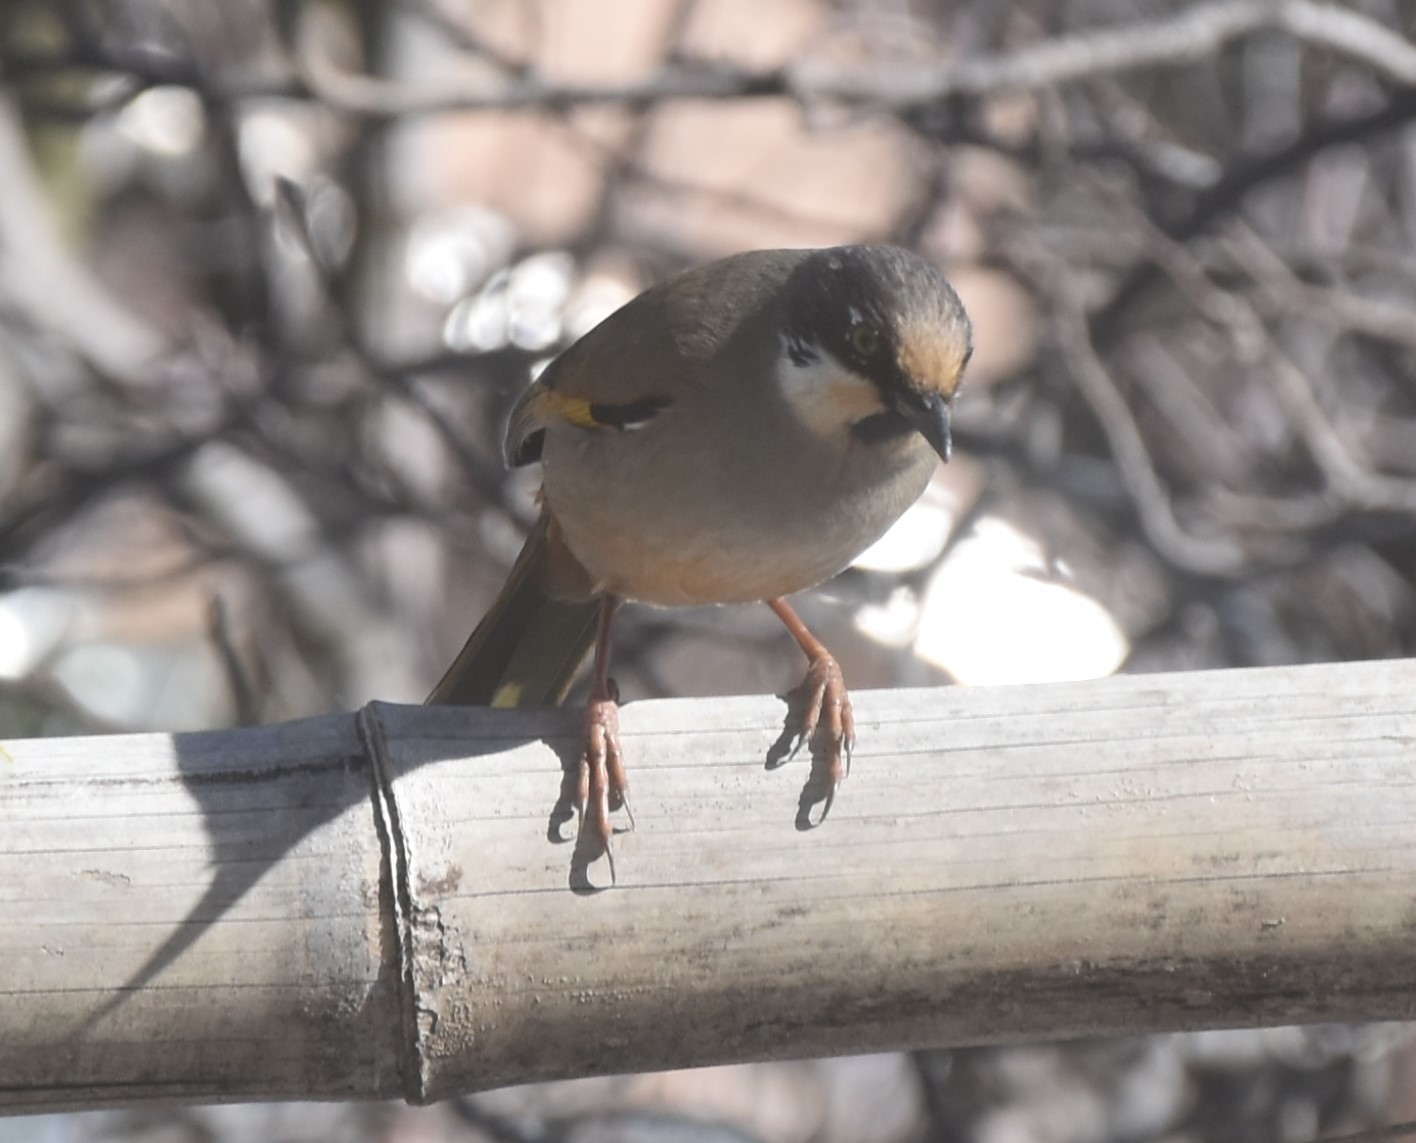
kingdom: Animalia
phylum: Chordata
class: Aves
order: Passeriformes
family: Leiothrichidae
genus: Trochalopteron
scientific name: Trochalopteron variegatum
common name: Variegated laughingthrush
